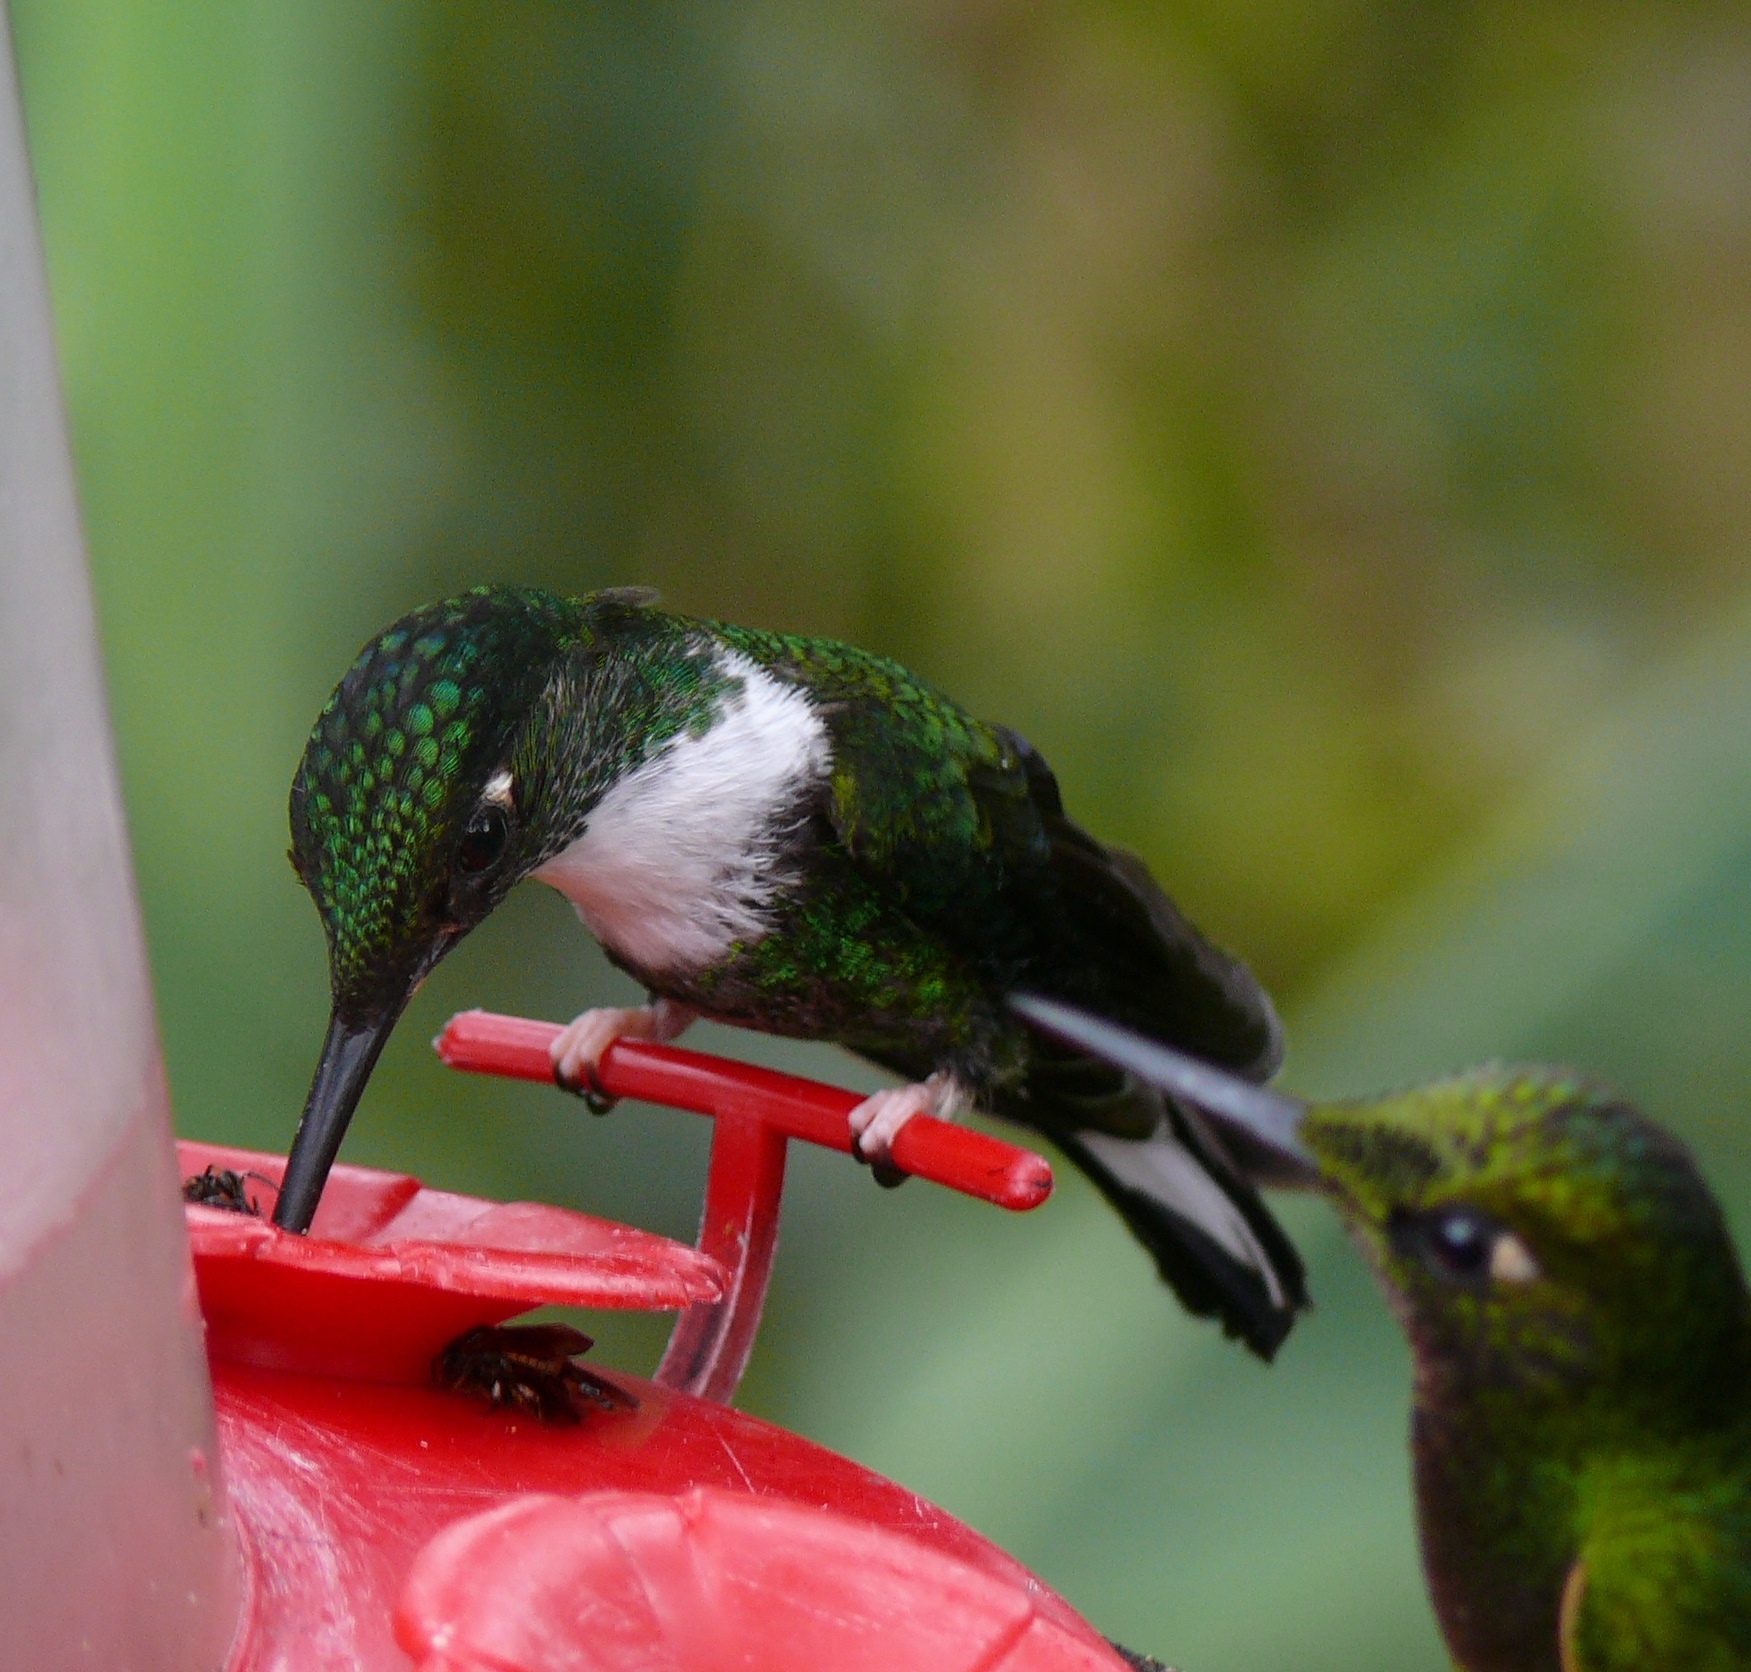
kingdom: Animalia
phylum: Chordata
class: Aves
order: Apodiformes
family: Trochilidae
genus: Coeligena
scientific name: Coeligena torquata
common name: Collared inca
